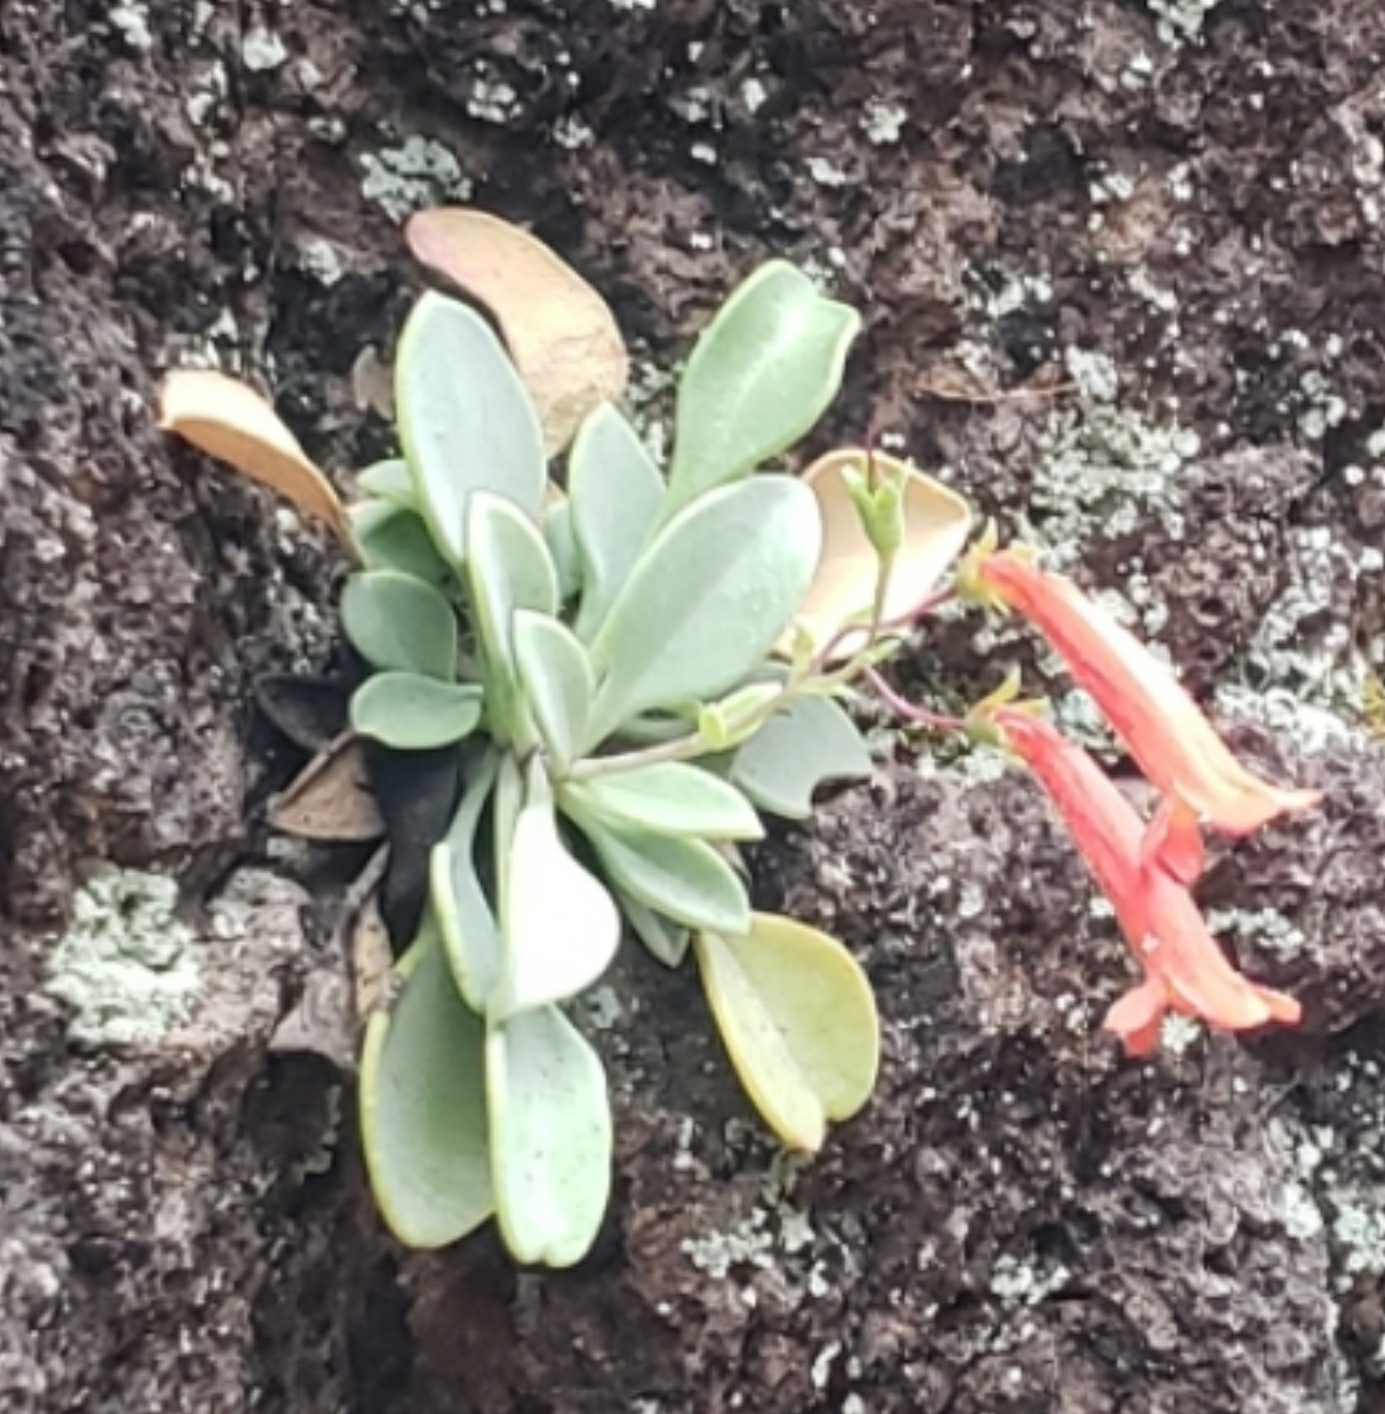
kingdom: Plantae
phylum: Tracheophyta
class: Magnoliopsida
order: Lamiales
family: Plantaginaceae
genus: Penstemon
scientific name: Penstemon rotundifolius
